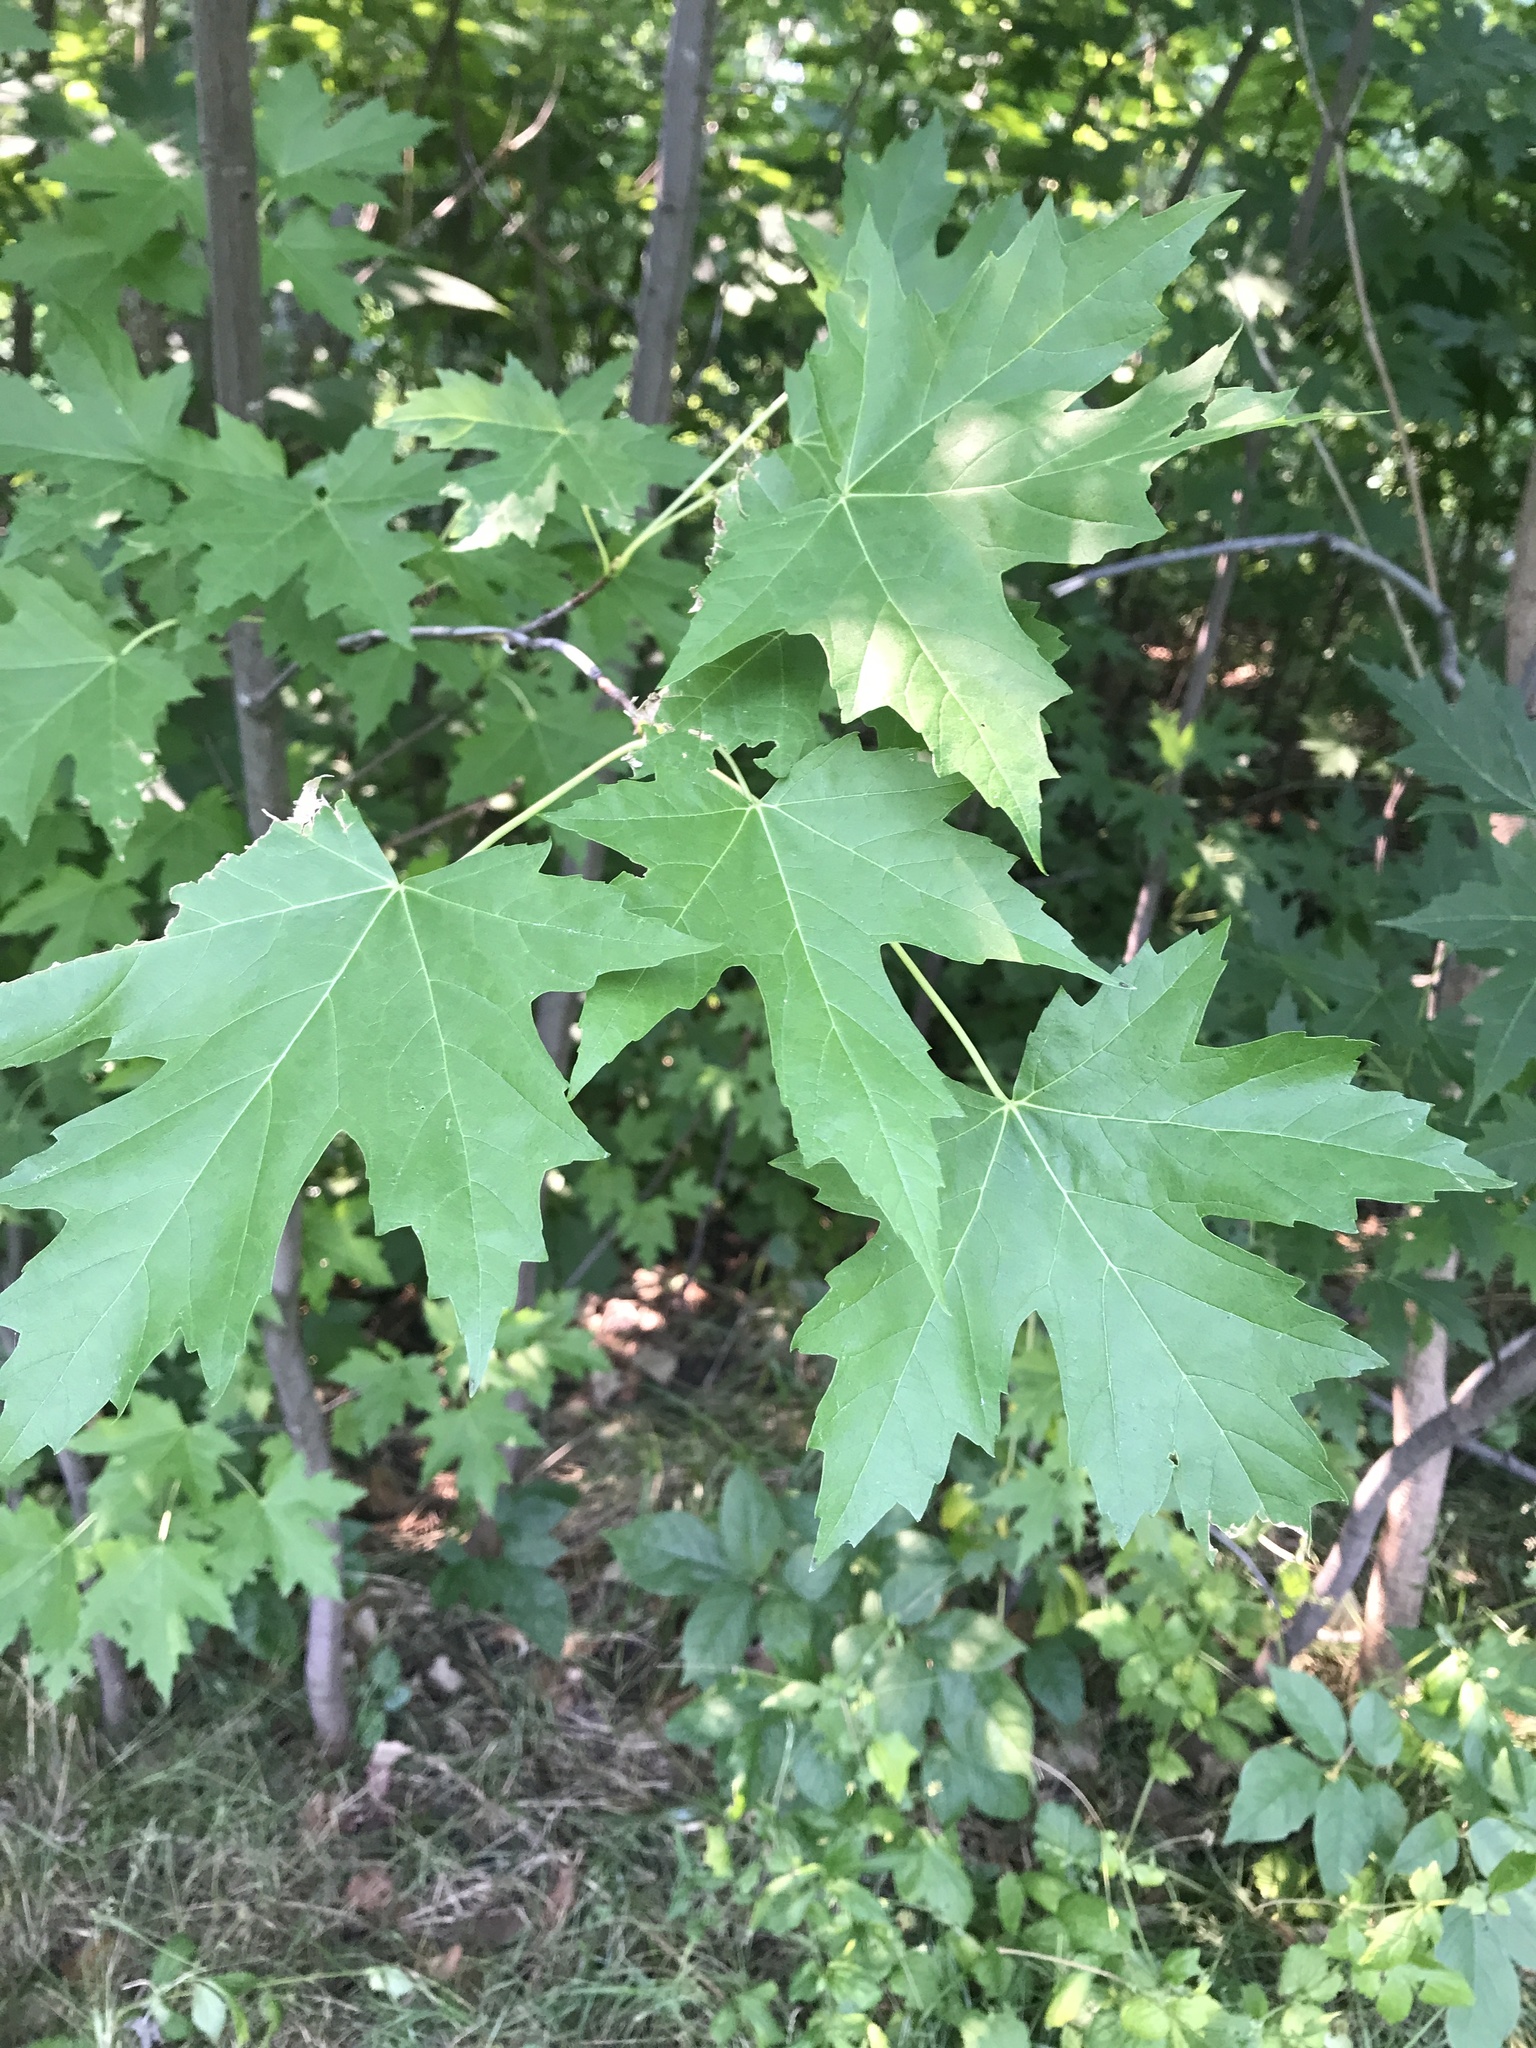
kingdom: Plantae
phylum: Tracheophyta
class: Magnoliopsida
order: Sapindales
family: Sapindaceae
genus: Acer
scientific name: Acer saccharinum
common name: Silver maple
